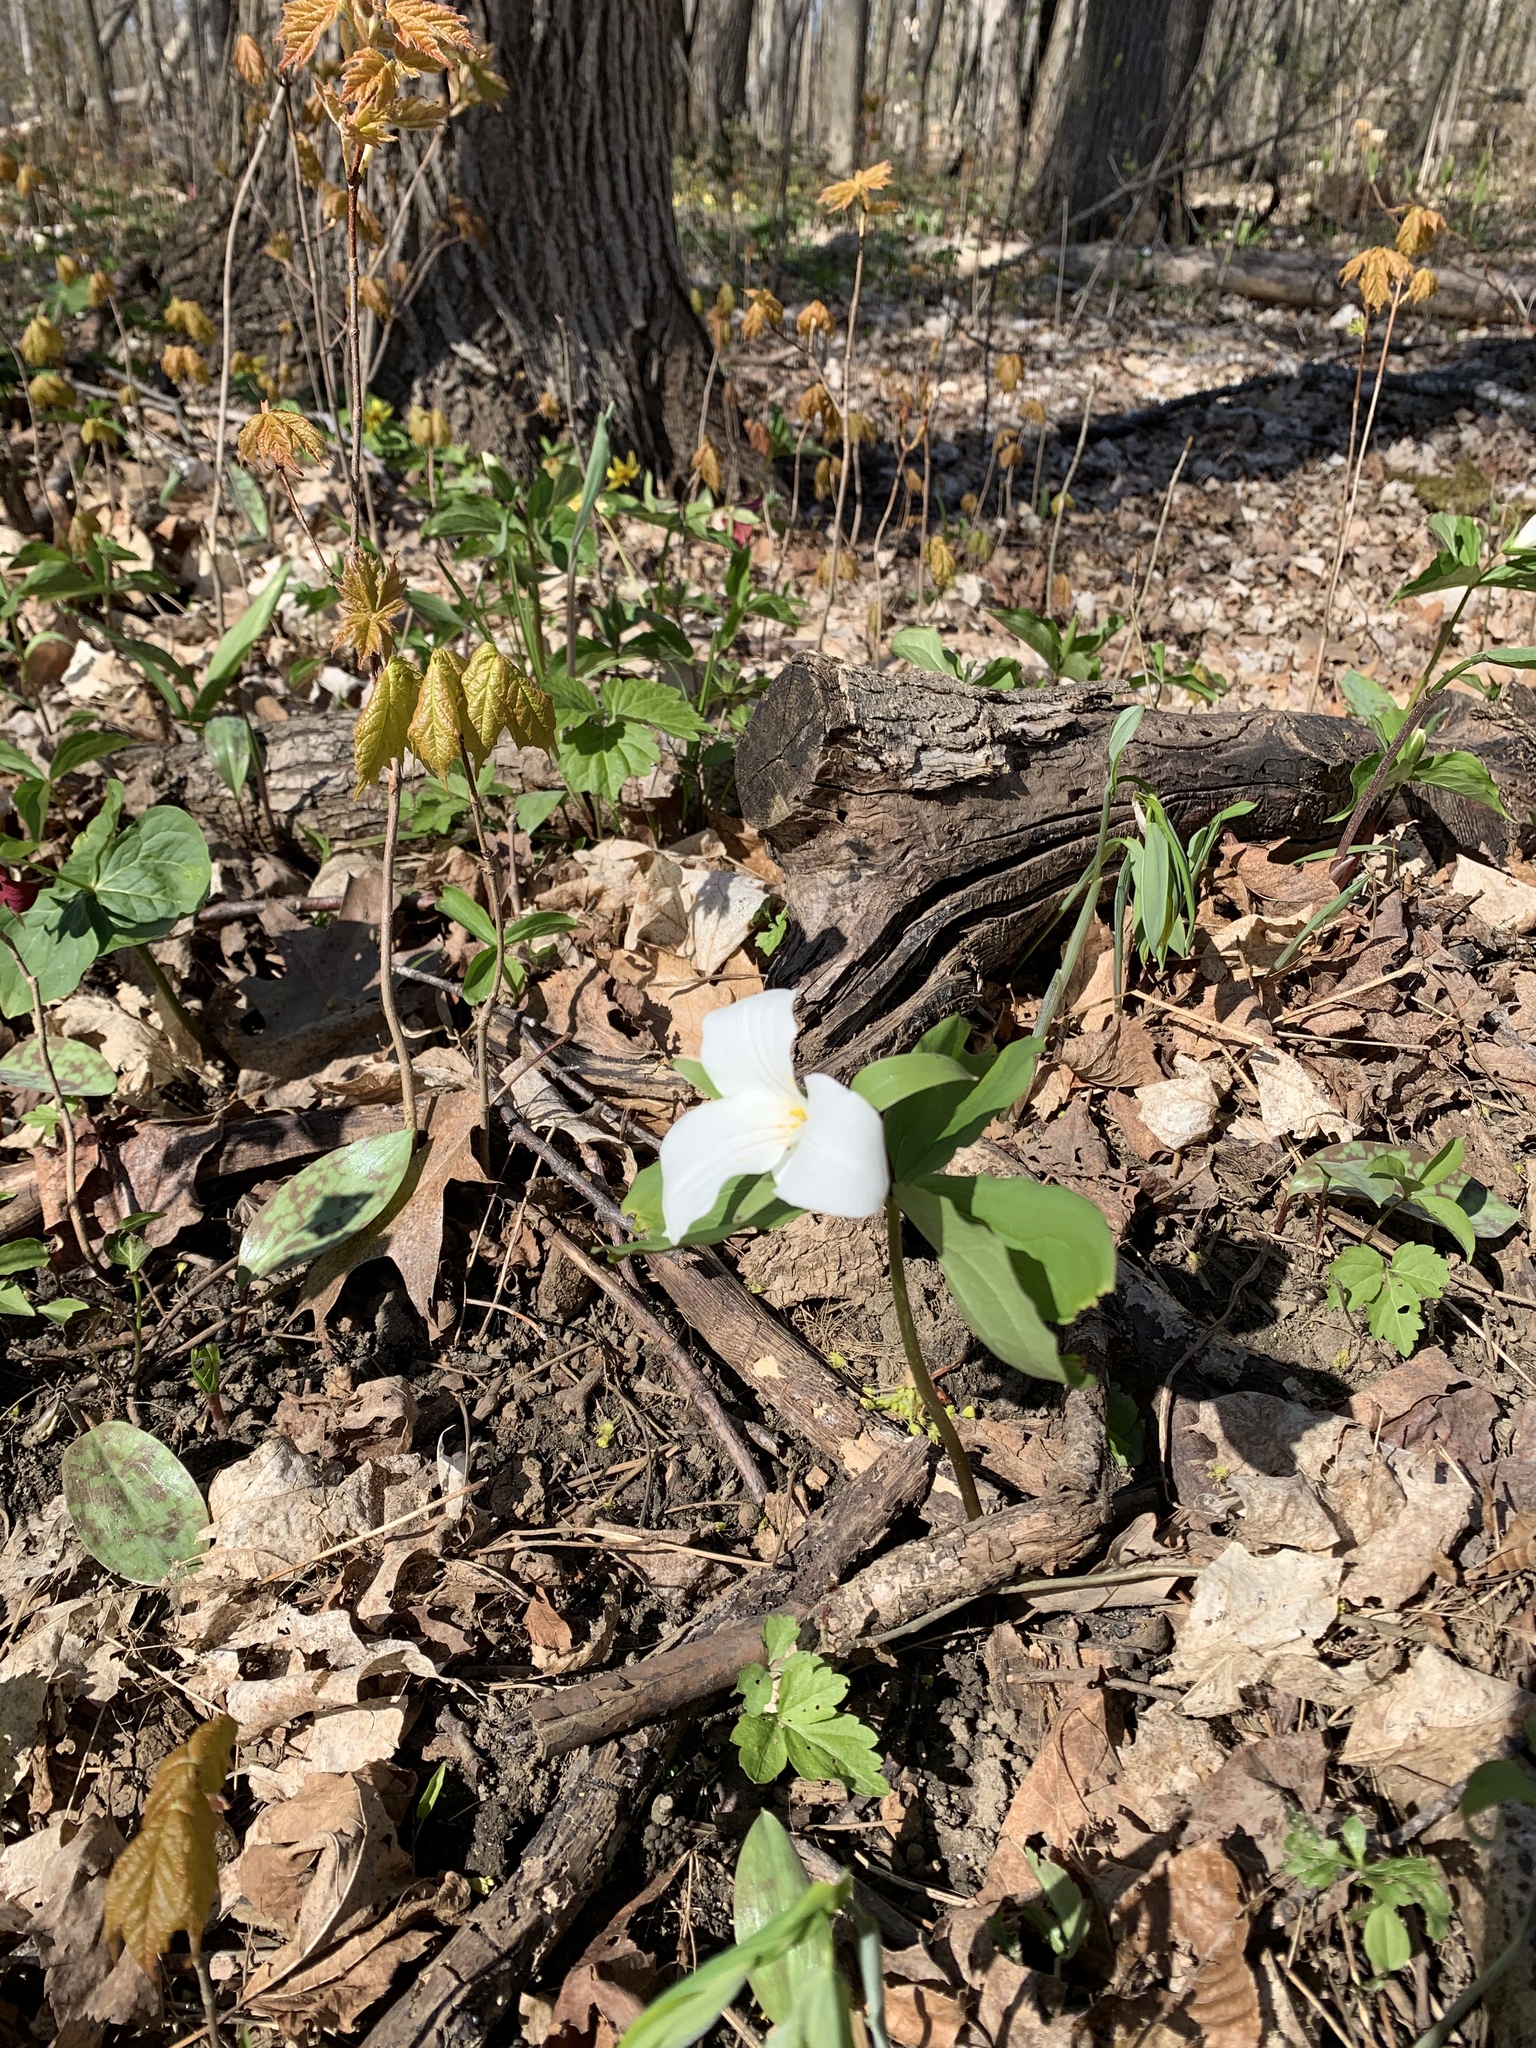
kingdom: Plantae
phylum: Tracheophyta
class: Liliopsida
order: Liliales
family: Melanthiaceae
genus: Trillium
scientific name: Trillium grandiflorum
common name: Great white trillium
